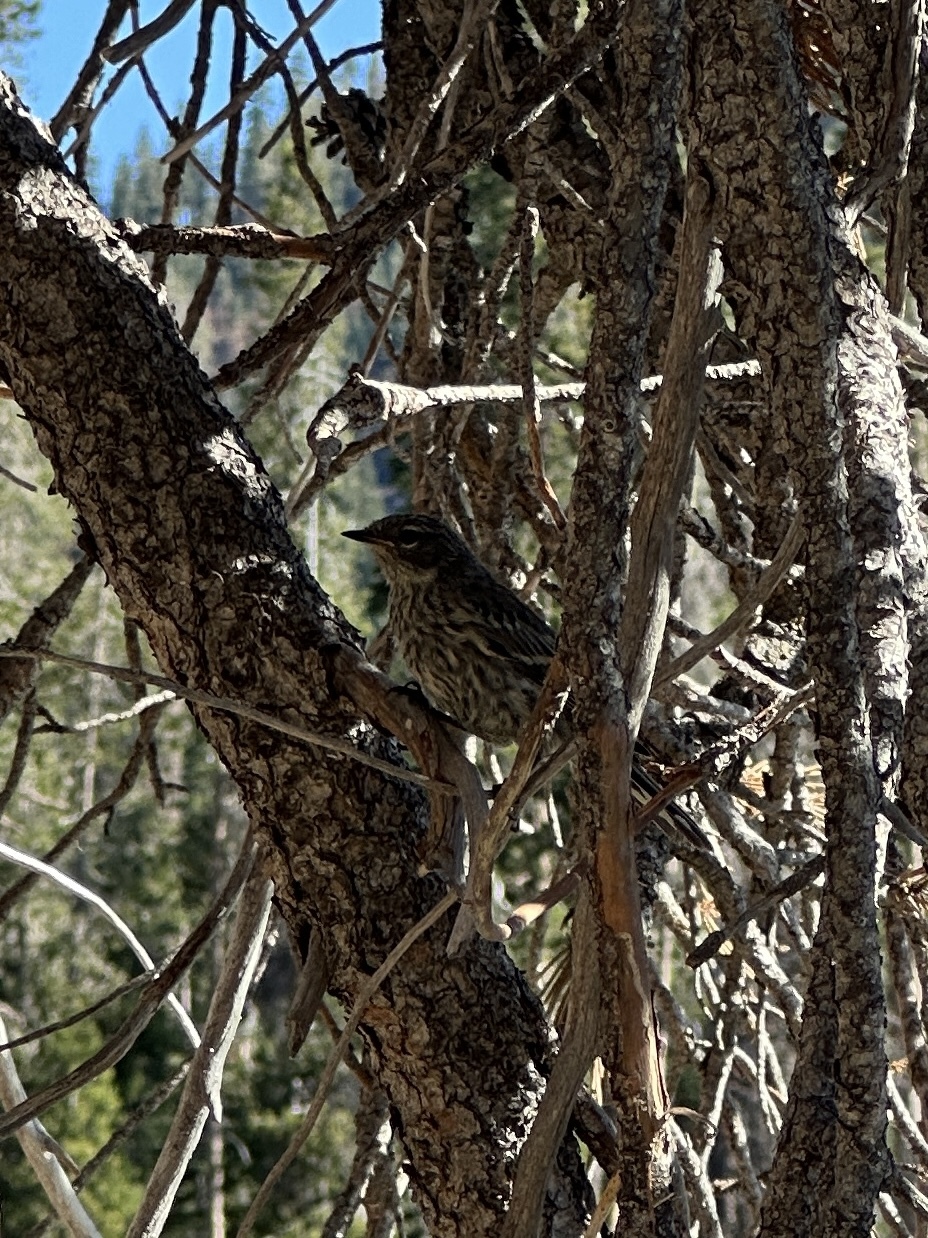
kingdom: Animalia
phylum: Chordata
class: Aves
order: Passeriformes
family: Parulidae
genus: Setophaga
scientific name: Setophaga coronata
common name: Myrtle warbler
